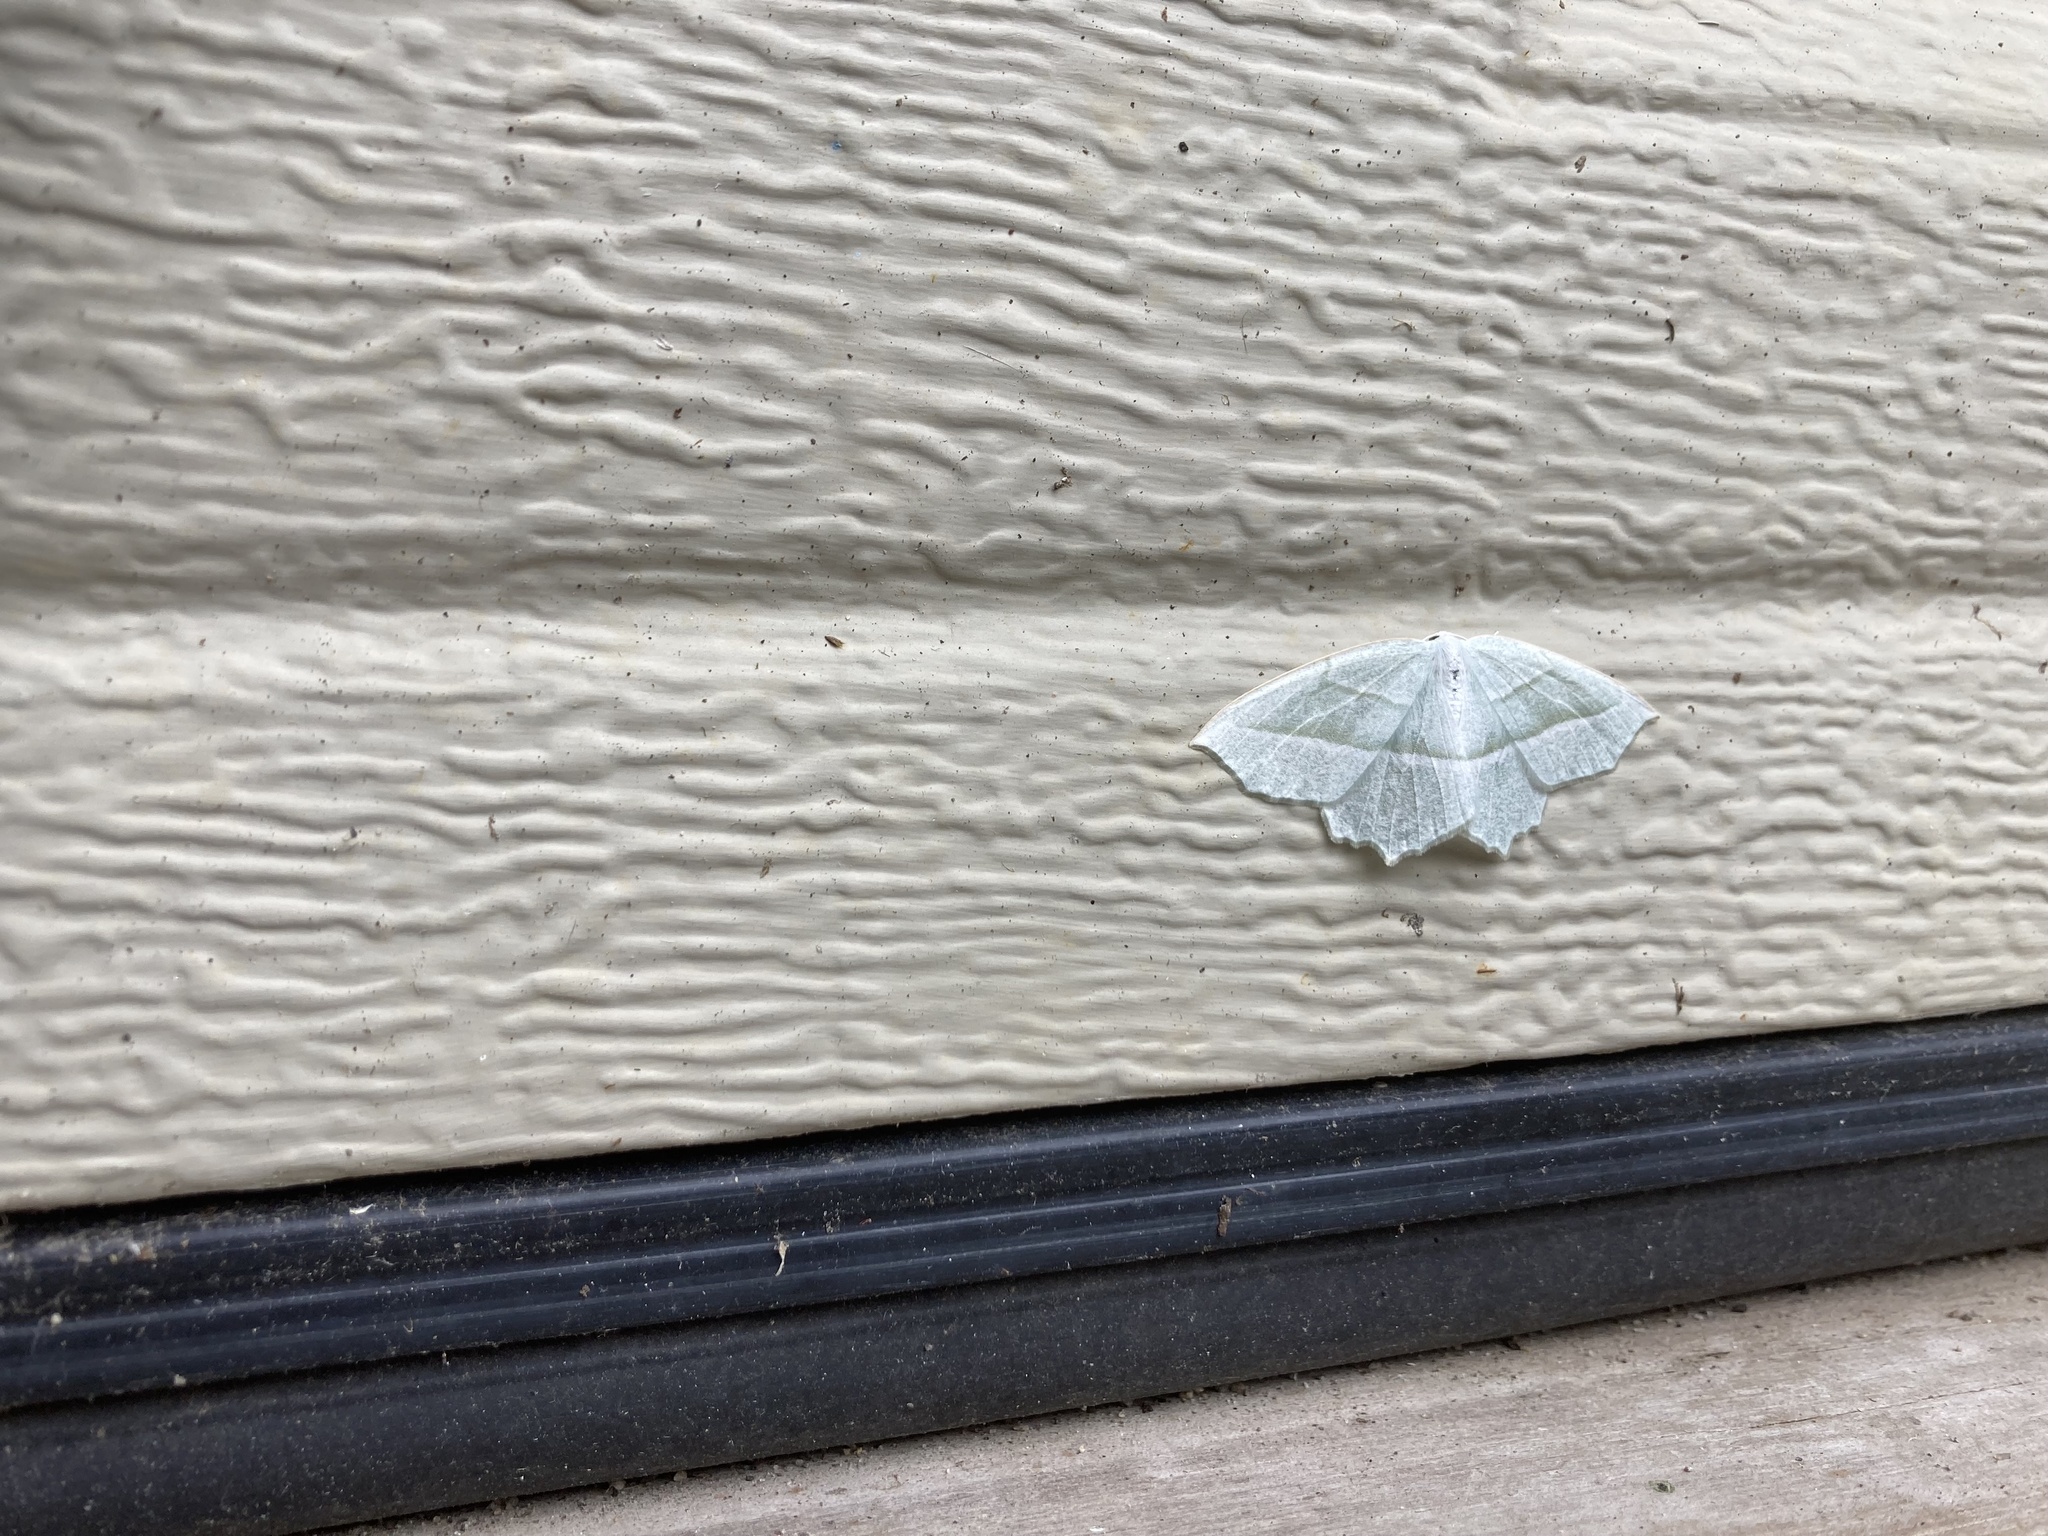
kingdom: Animalia
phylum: Arthropoda
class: Insecta
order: Lepidoptera
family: Geometridae
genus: Campaea
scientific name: Campaea perlata
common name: Fringed looper
